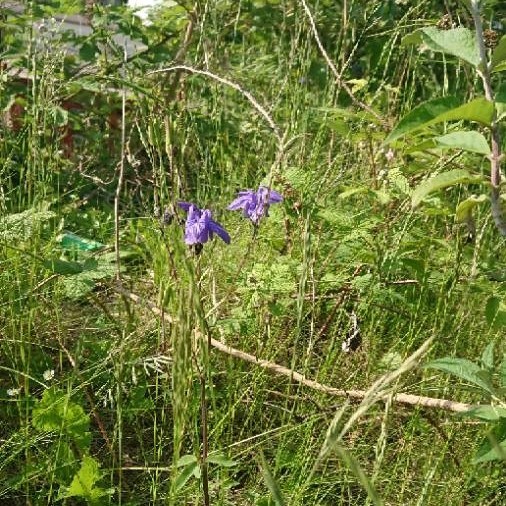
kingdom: Plantae
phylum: Tracheophyta
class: Magnoliopsida
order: Ranunculales
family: Ranunculaceae
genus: Aquilegia
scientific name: Aquilegia vulgaris
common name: Columbine
